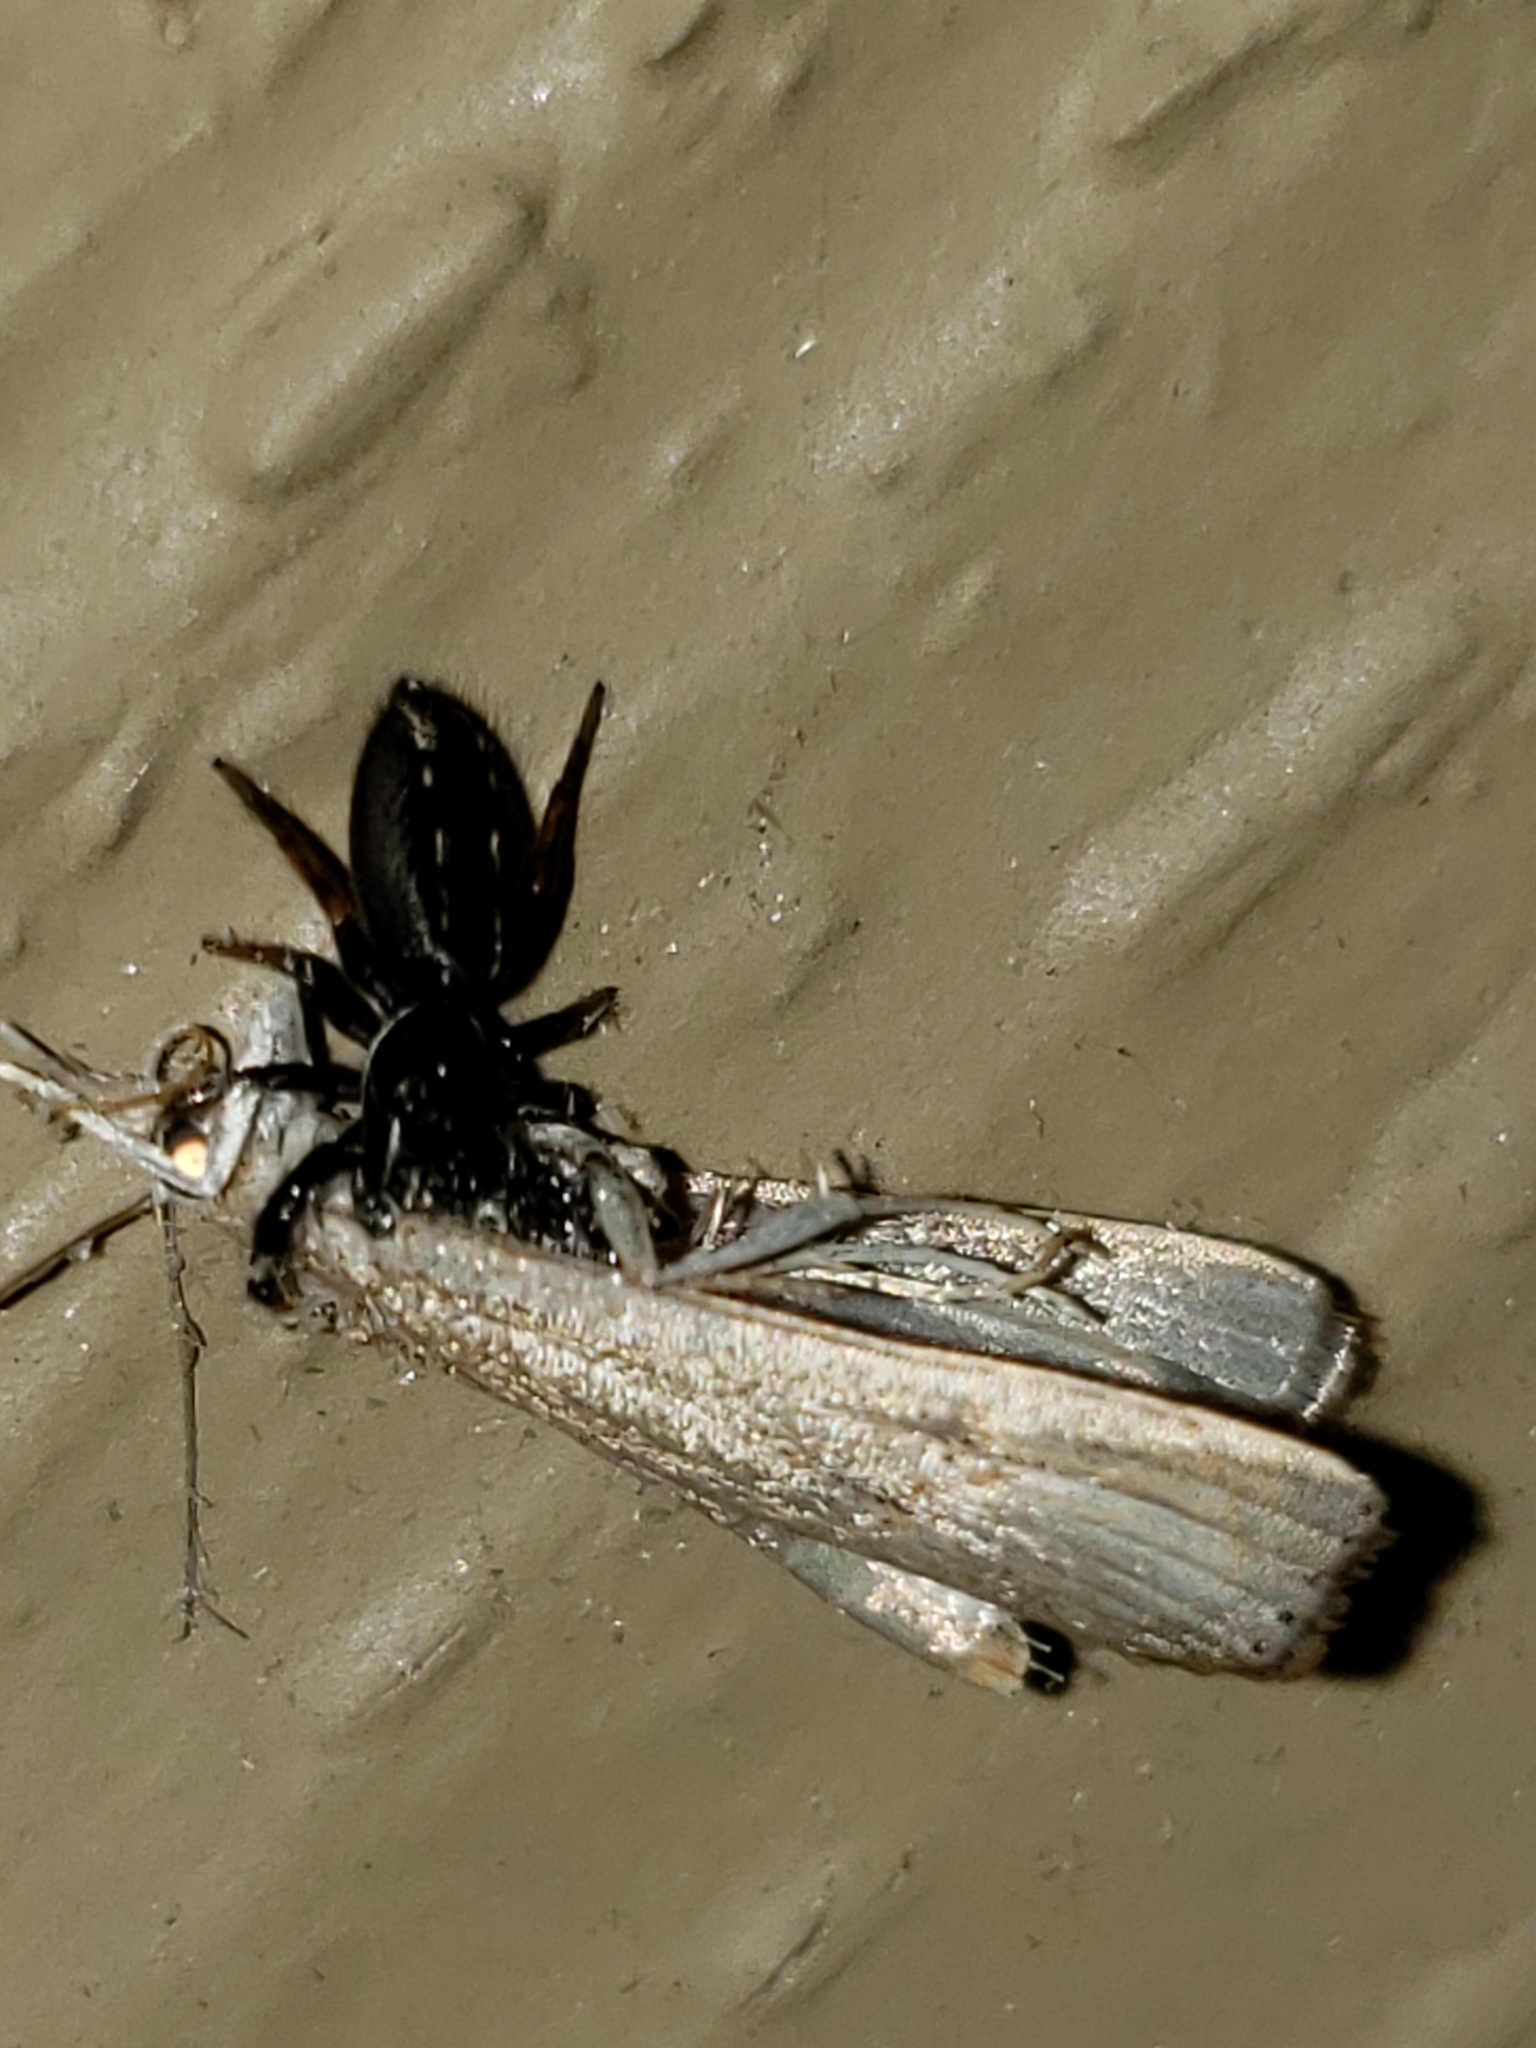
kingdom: Animalia
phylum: Arthropoda
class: Arachnida
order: Araneae
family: Salticidae
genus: Metacyrba
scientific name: Metacyrba taeniola
